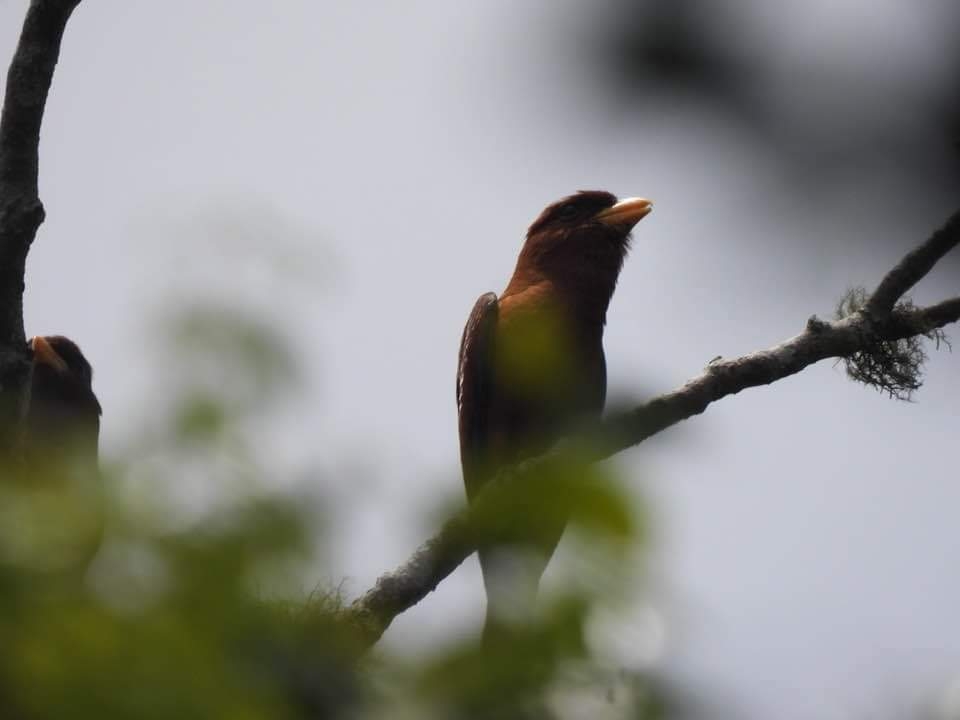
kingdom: Animalia
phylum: Chordata
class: Aves
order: Coraciiformes
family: Coraciidae
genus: Eurystomus
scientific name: Eurystomus glaucurus
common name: Broad-billed roller
